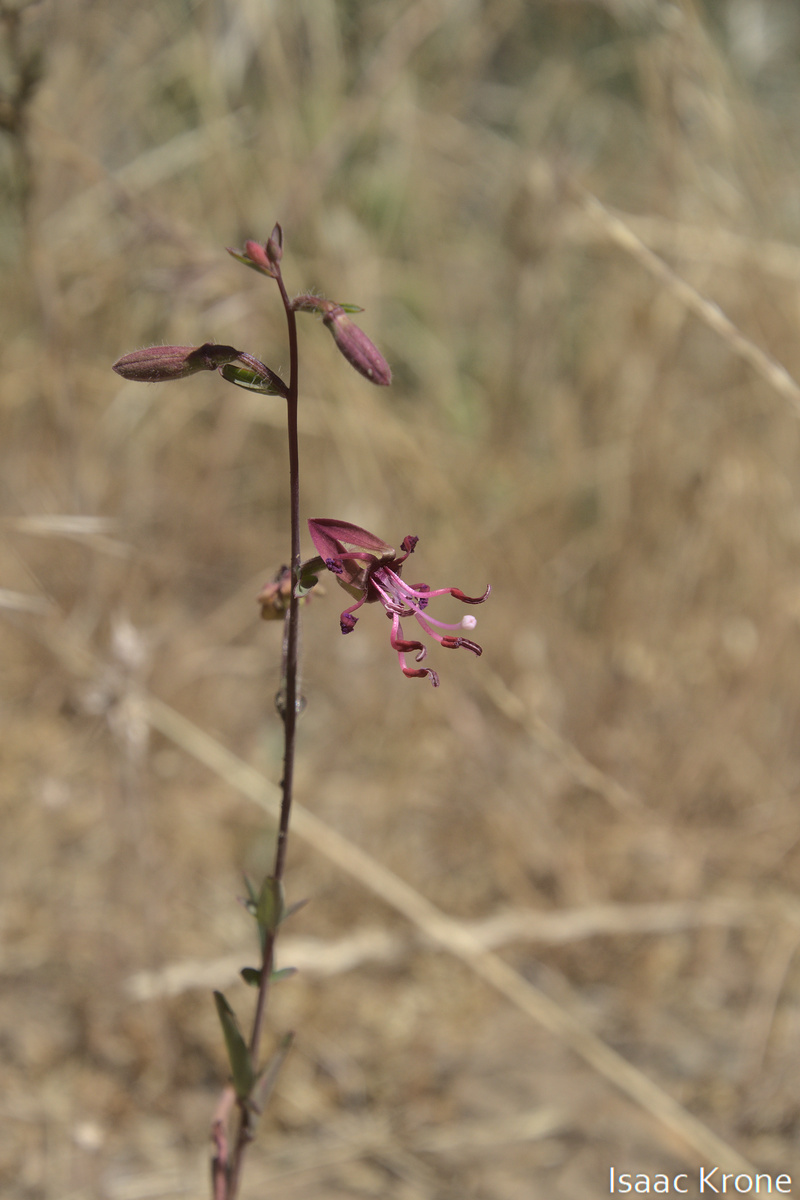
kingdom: Plantae
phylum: Tracheophyta
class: Magnoliopsida
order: Myrtales
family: Onagraceae
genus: Clarkia
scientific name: Clarkia unguiculata
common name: Clarkia
